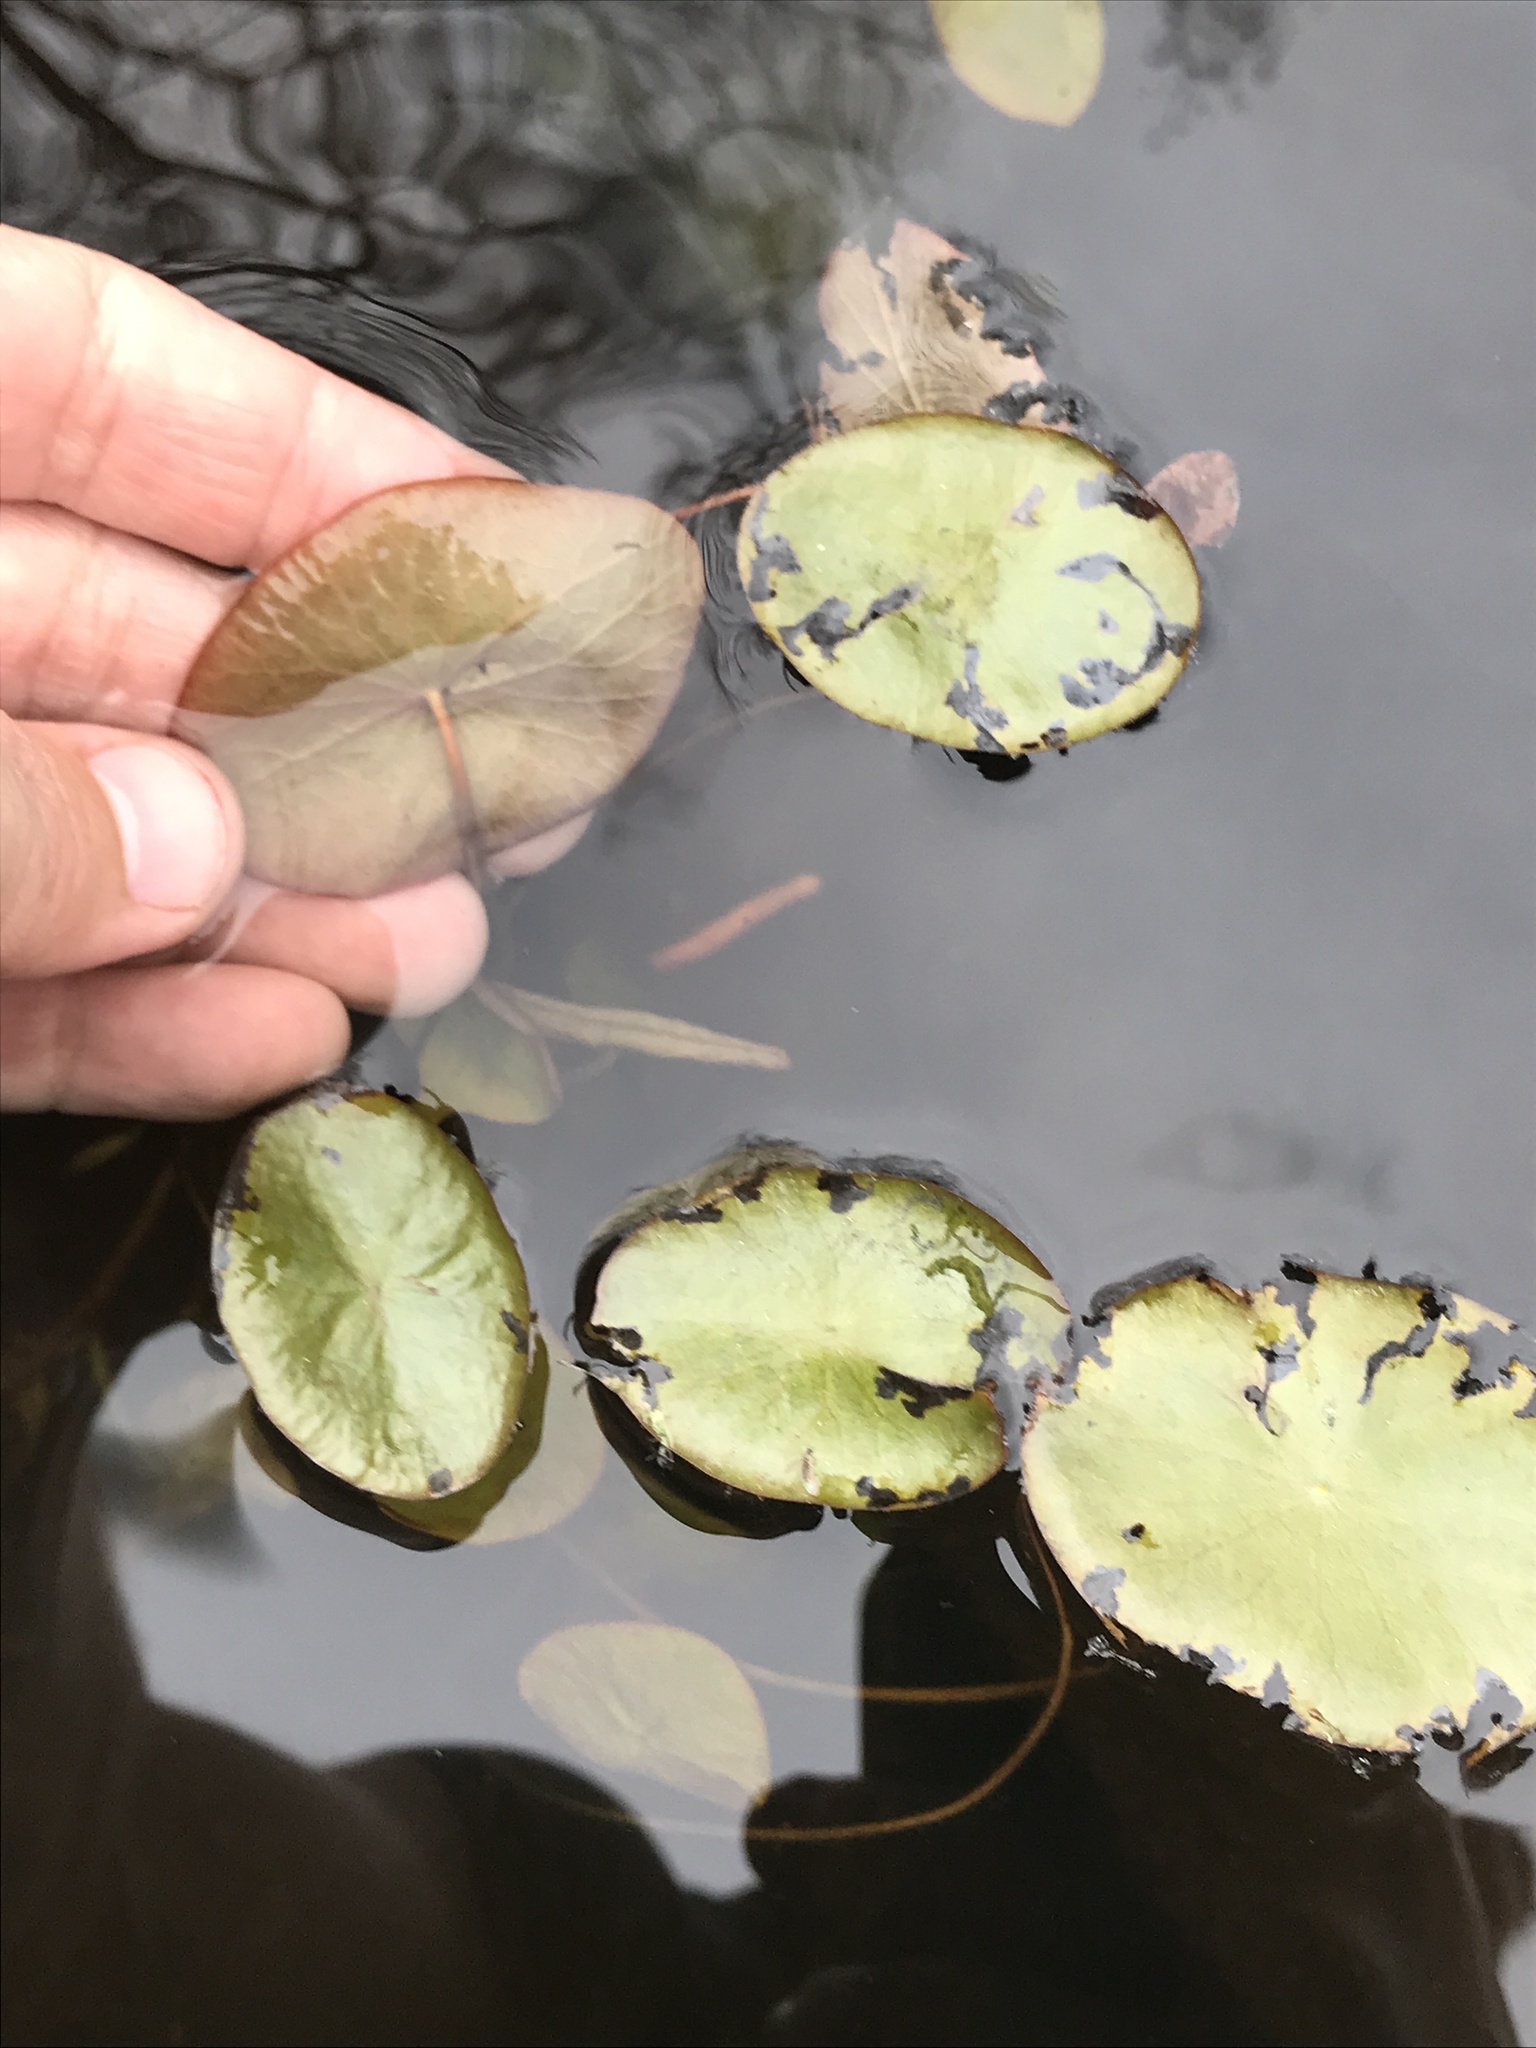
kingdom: Plantae
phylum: Tracheophyta
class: Magnoliopsida
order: Nymphaeales
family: Cabombaceae
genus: Brasenia
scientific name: Brasenia schreberi
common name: Water-shield
